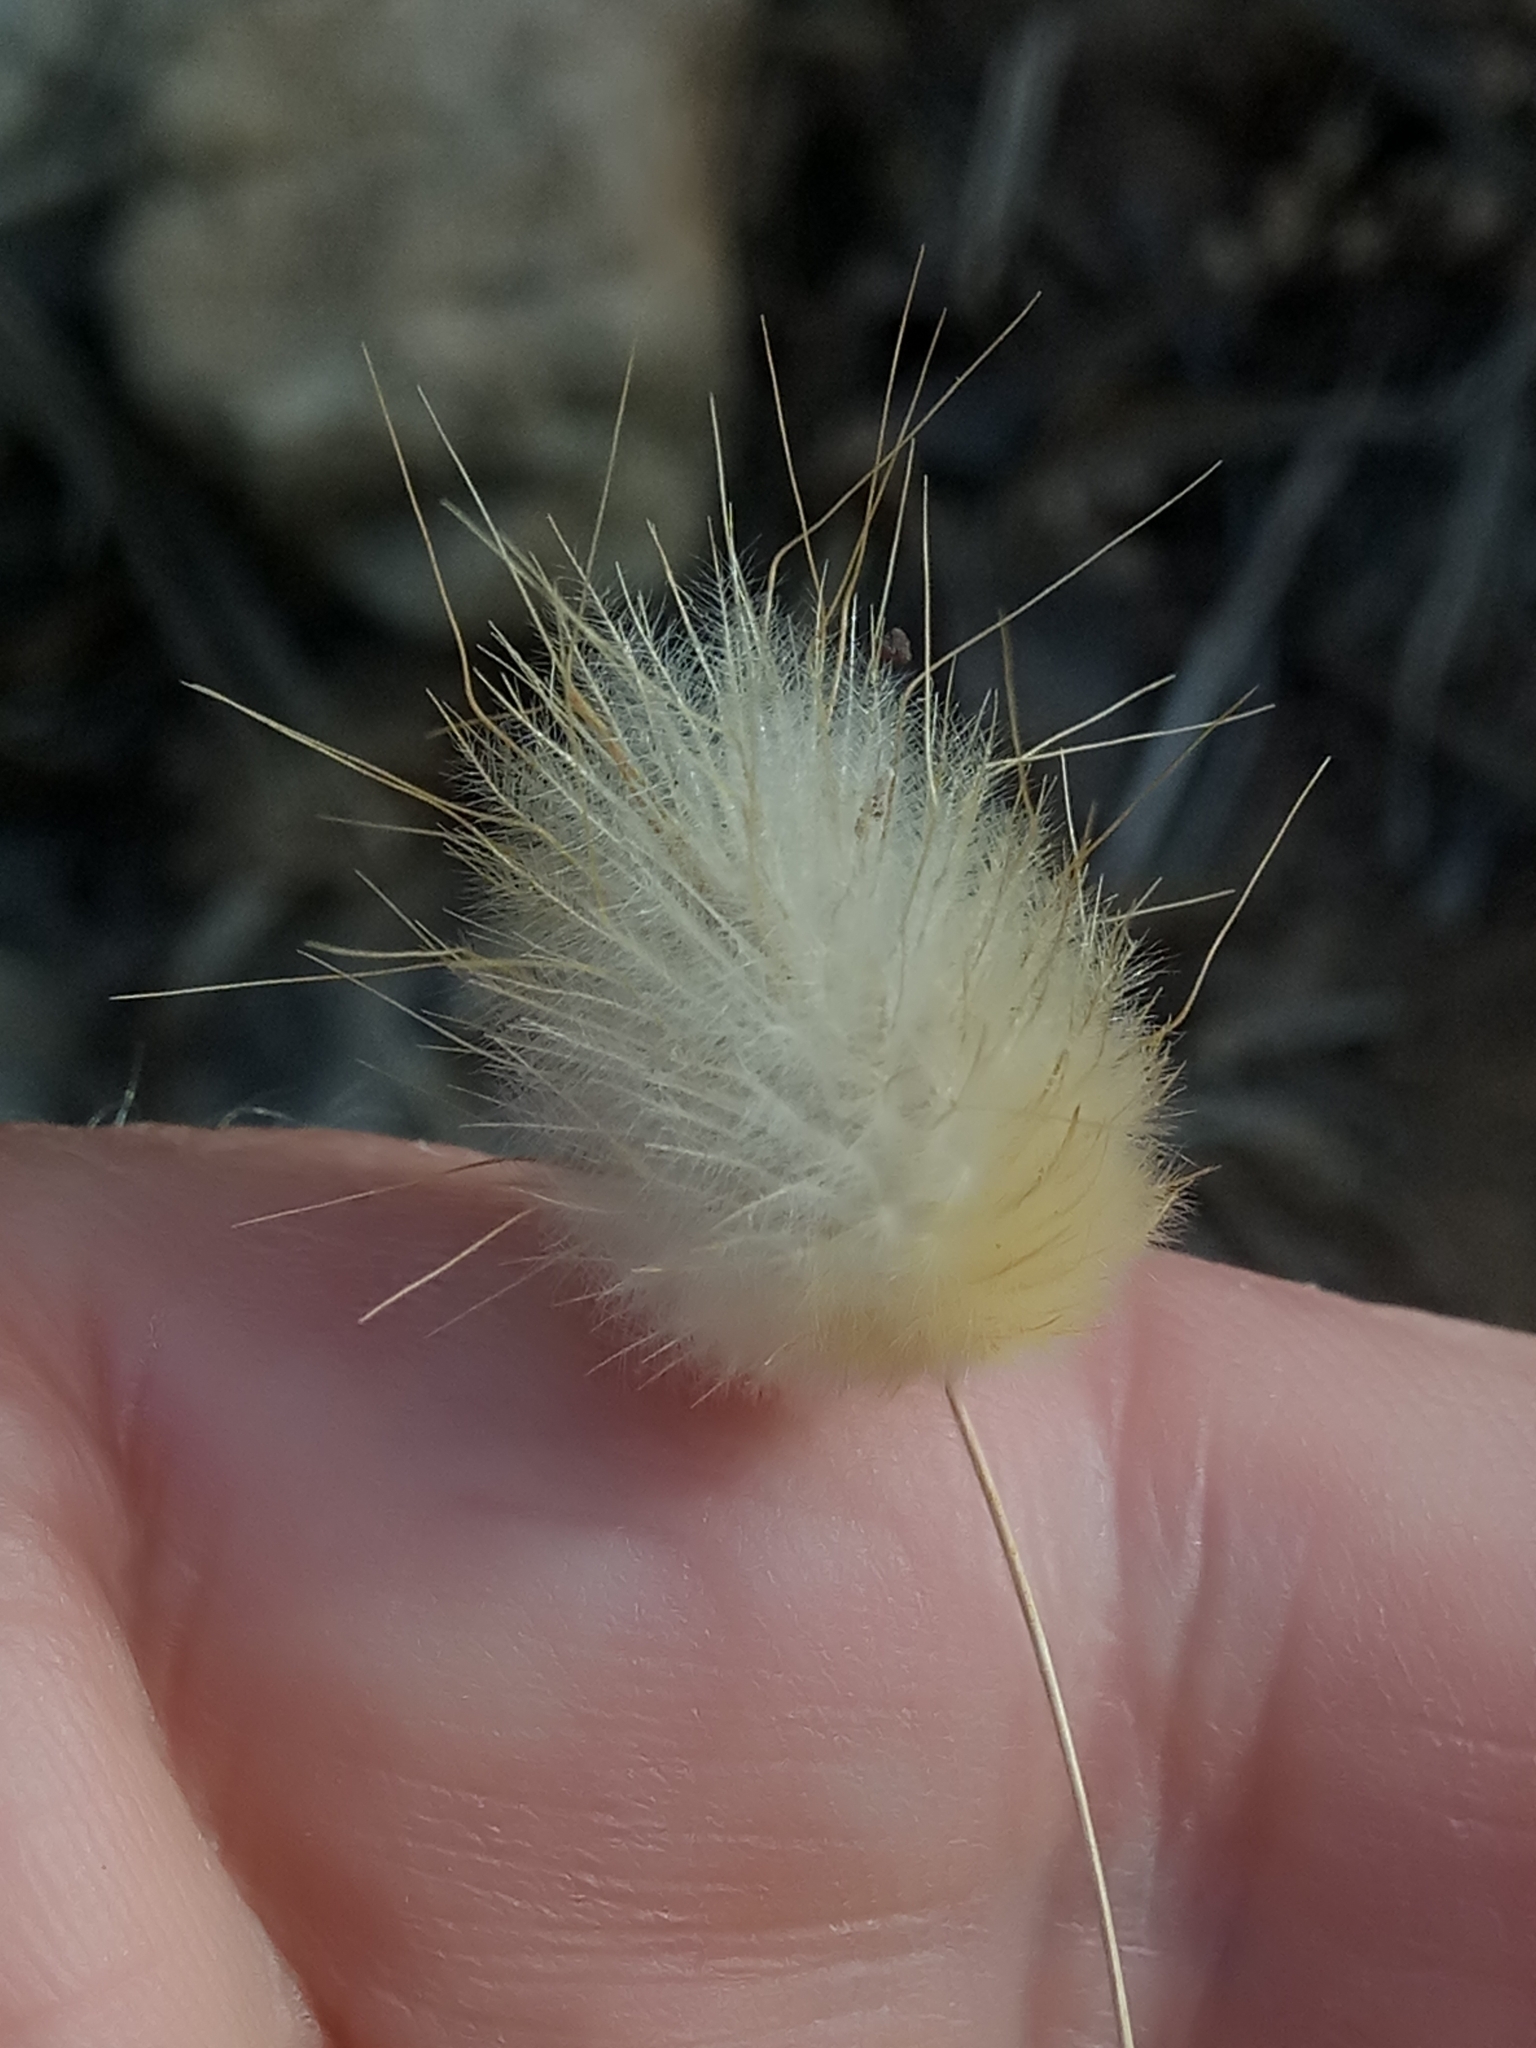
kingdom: Plantae
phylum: Tracheophyta
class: Liliopsida
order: Poales
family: Poaceae
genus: Lagurus
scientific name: Lagurus ovatus
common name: Hare's-tail
